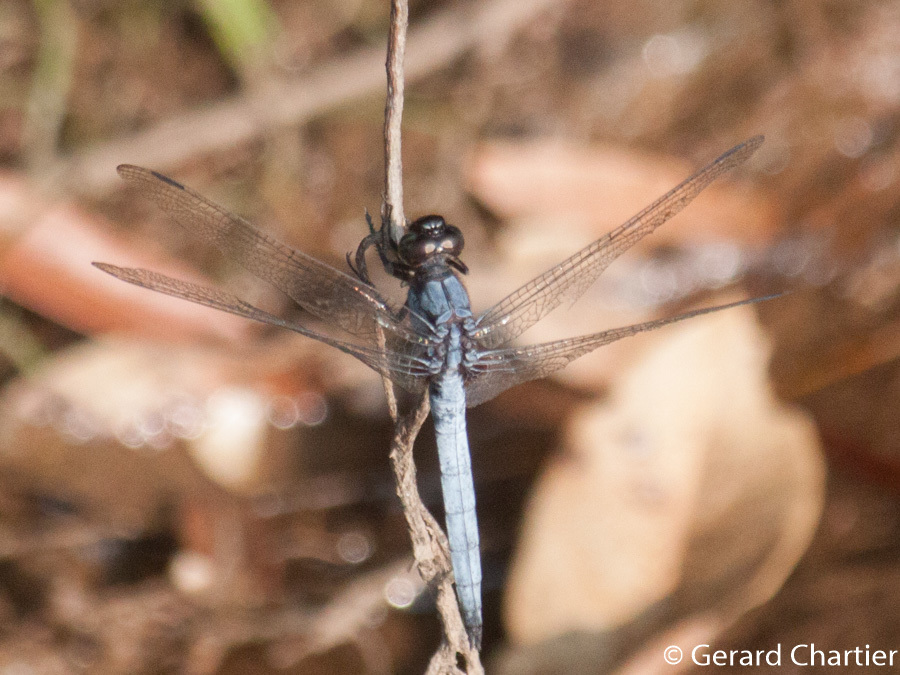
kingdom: Animalia
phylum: Arthropoda
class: Insecta
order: Odonata
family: Libellulidae
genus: Orthetrum
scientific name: Orthetrum glaucum
